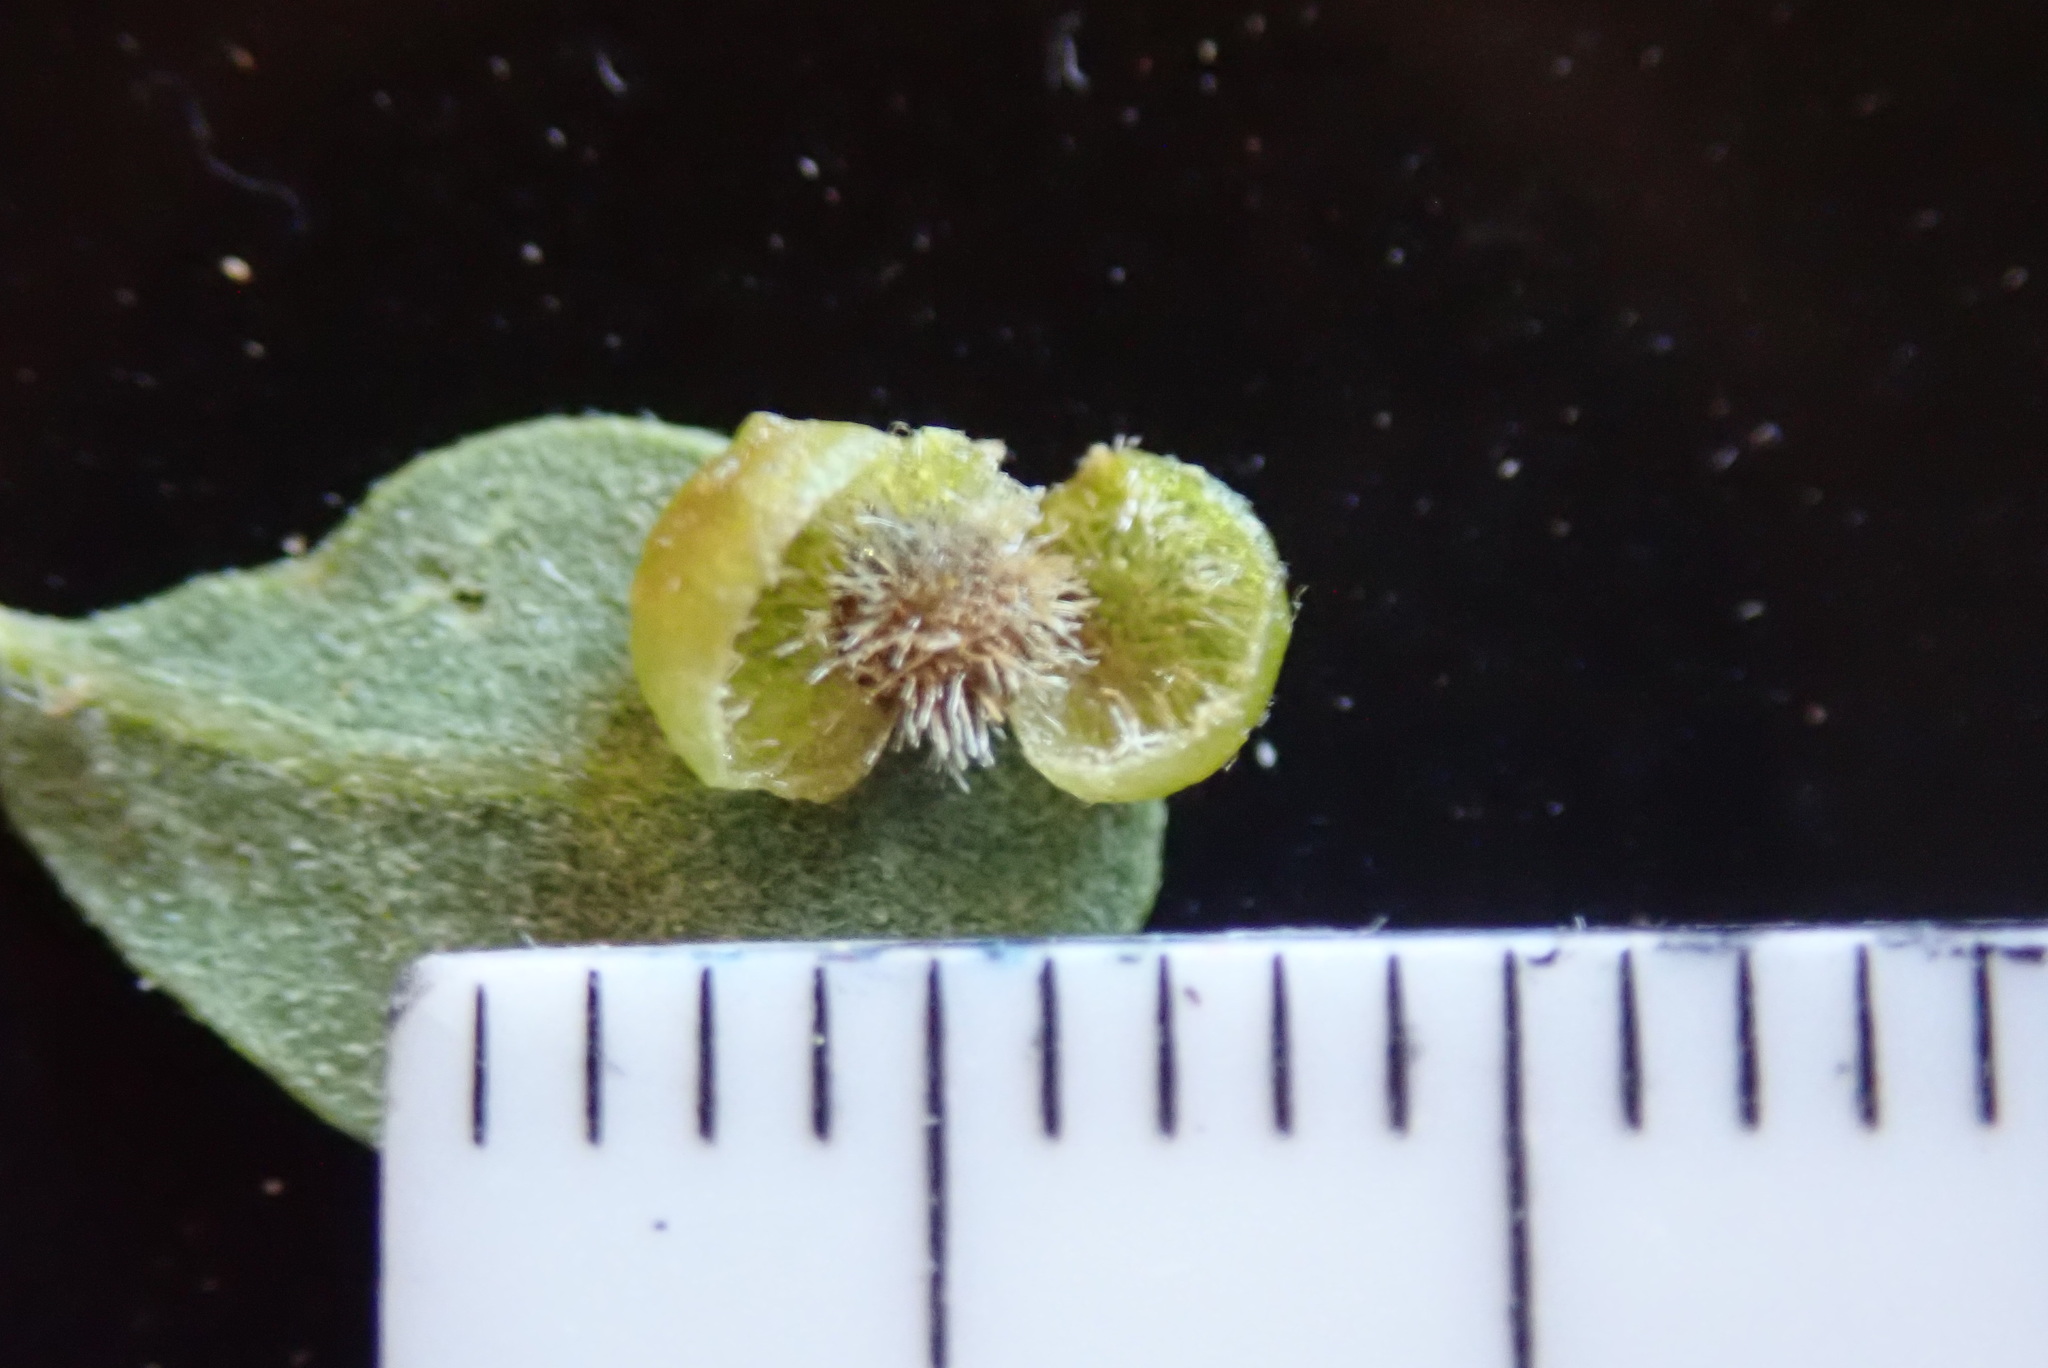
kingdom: Animalia
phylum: Arthropoda
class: Insecta
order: Hymenoptera
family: Cynipidae
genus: Andricus
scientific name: Andricus
